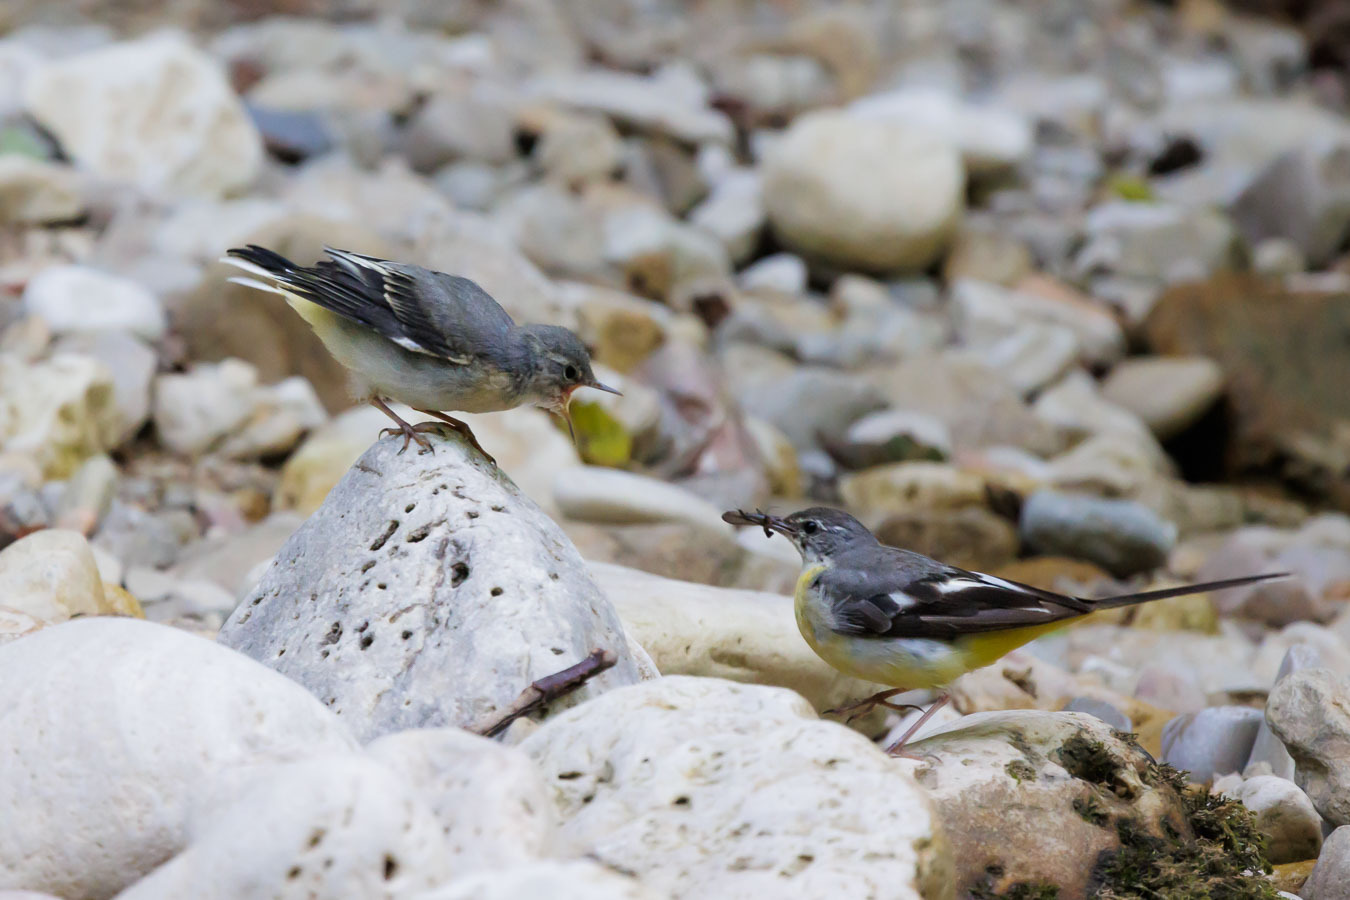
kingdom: Animalia
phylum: Chordata
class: Aves
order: Passeriformes
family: Motacillidae
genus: Motacilla
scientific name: Motacilla cinerea
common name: Grey wagtail
